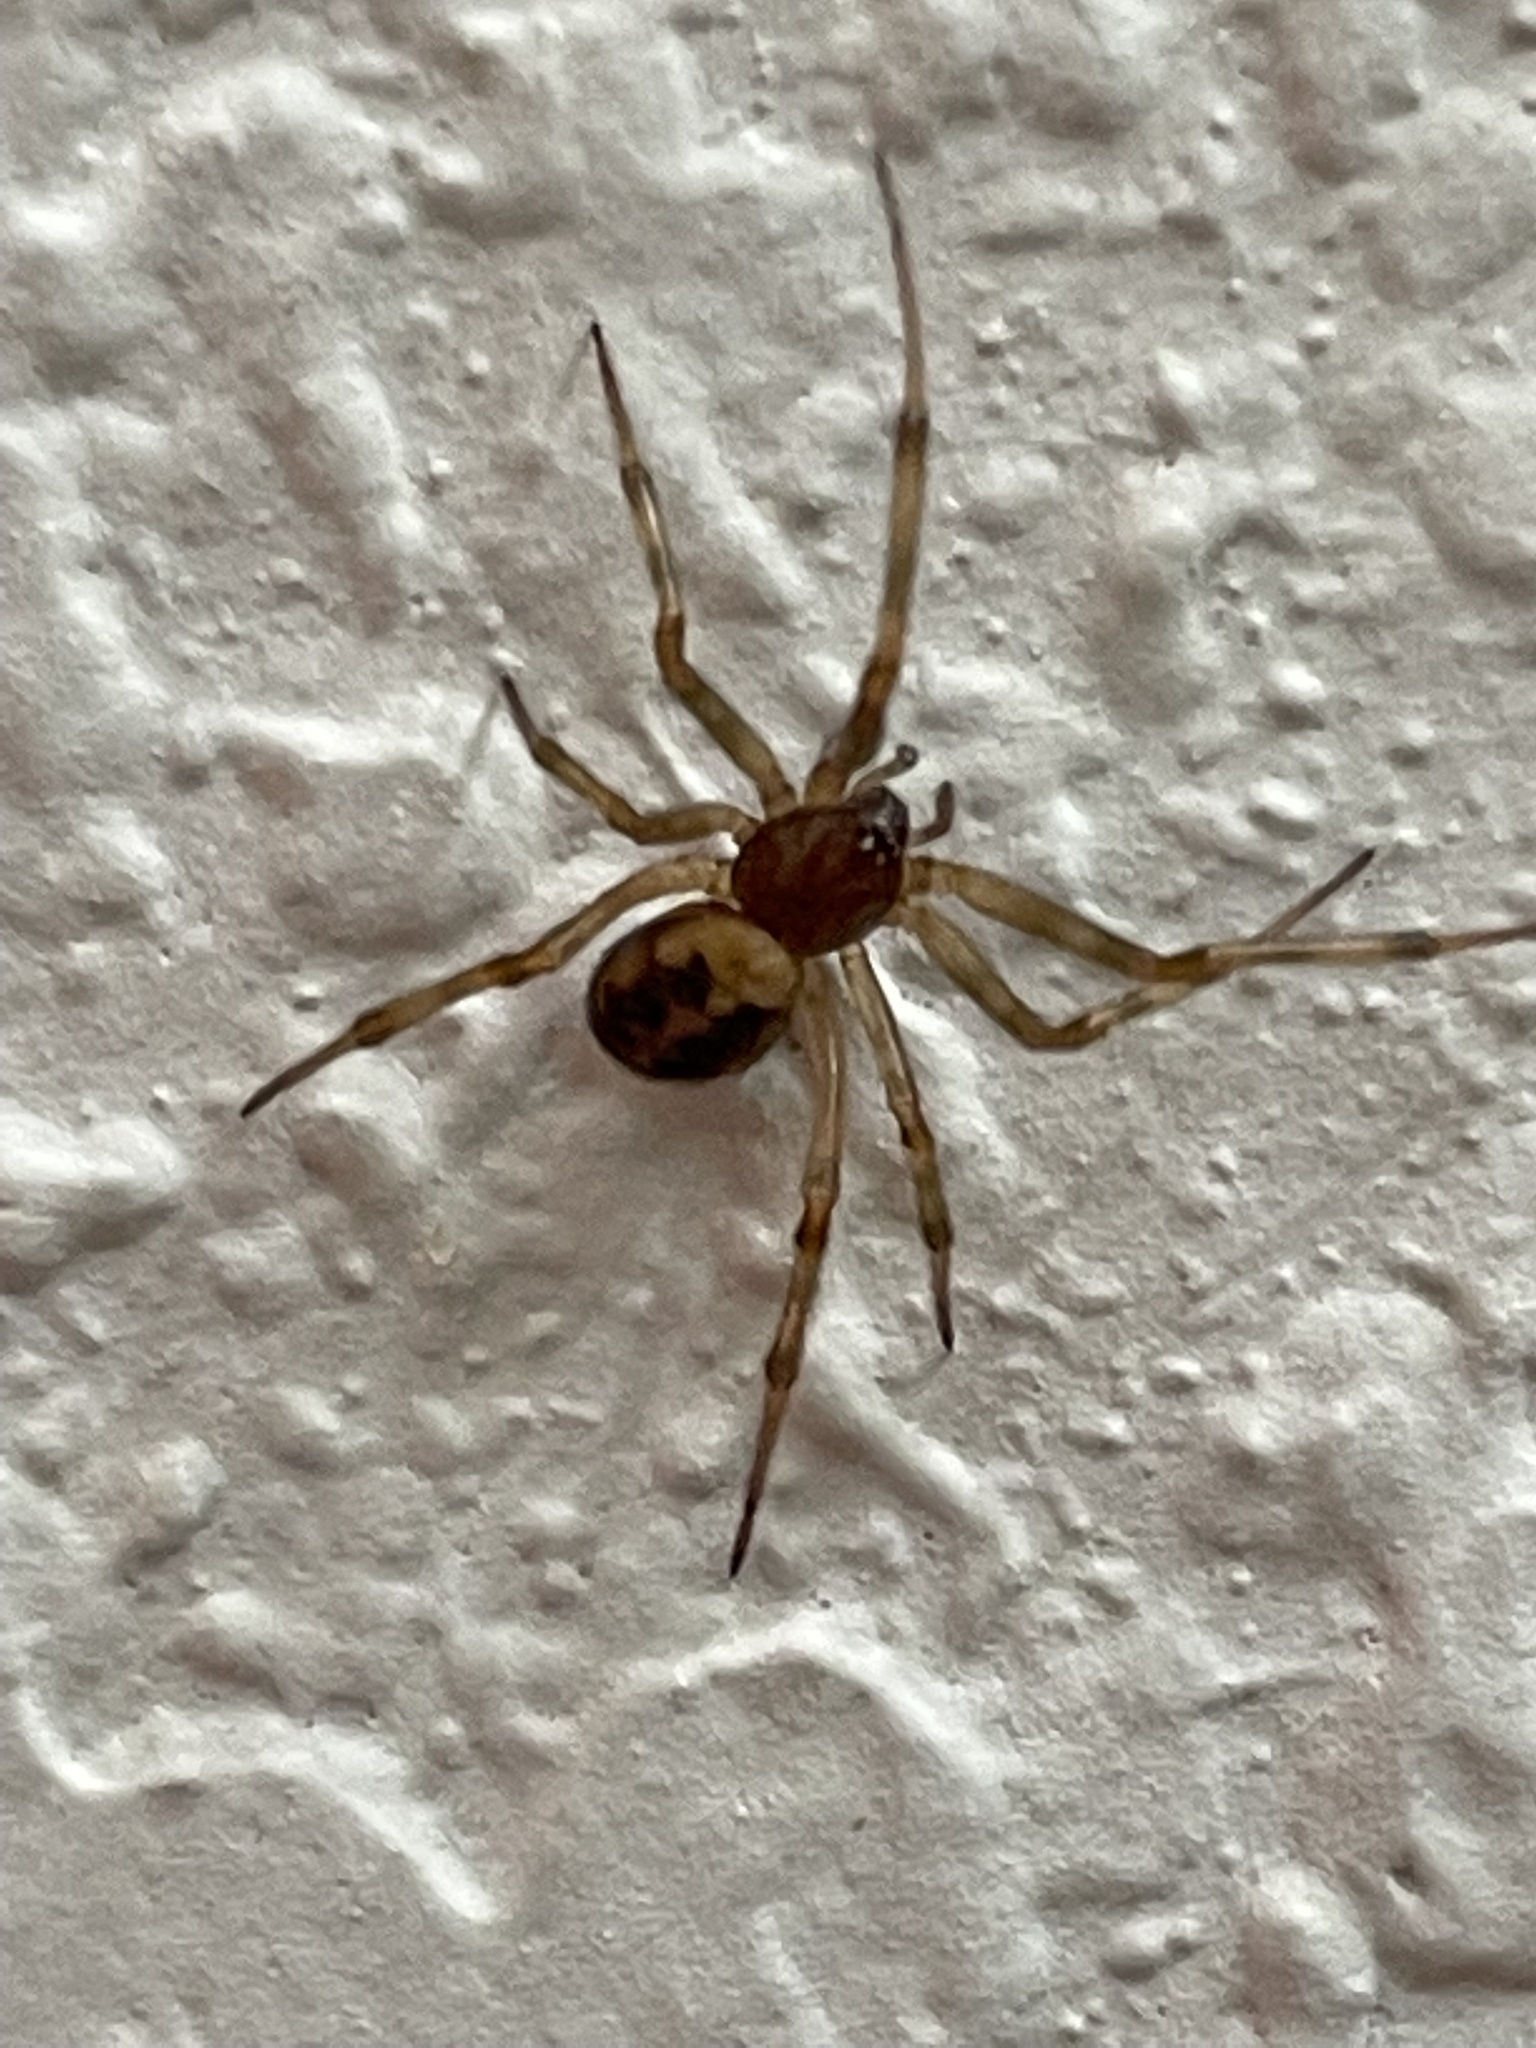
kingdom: Animalia
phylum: Arthropoda
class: Arachnida
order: Araneae
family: Theridiidae
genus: Steatoda
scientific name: Steatoda triangulosa
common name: Triangulate bud spider
